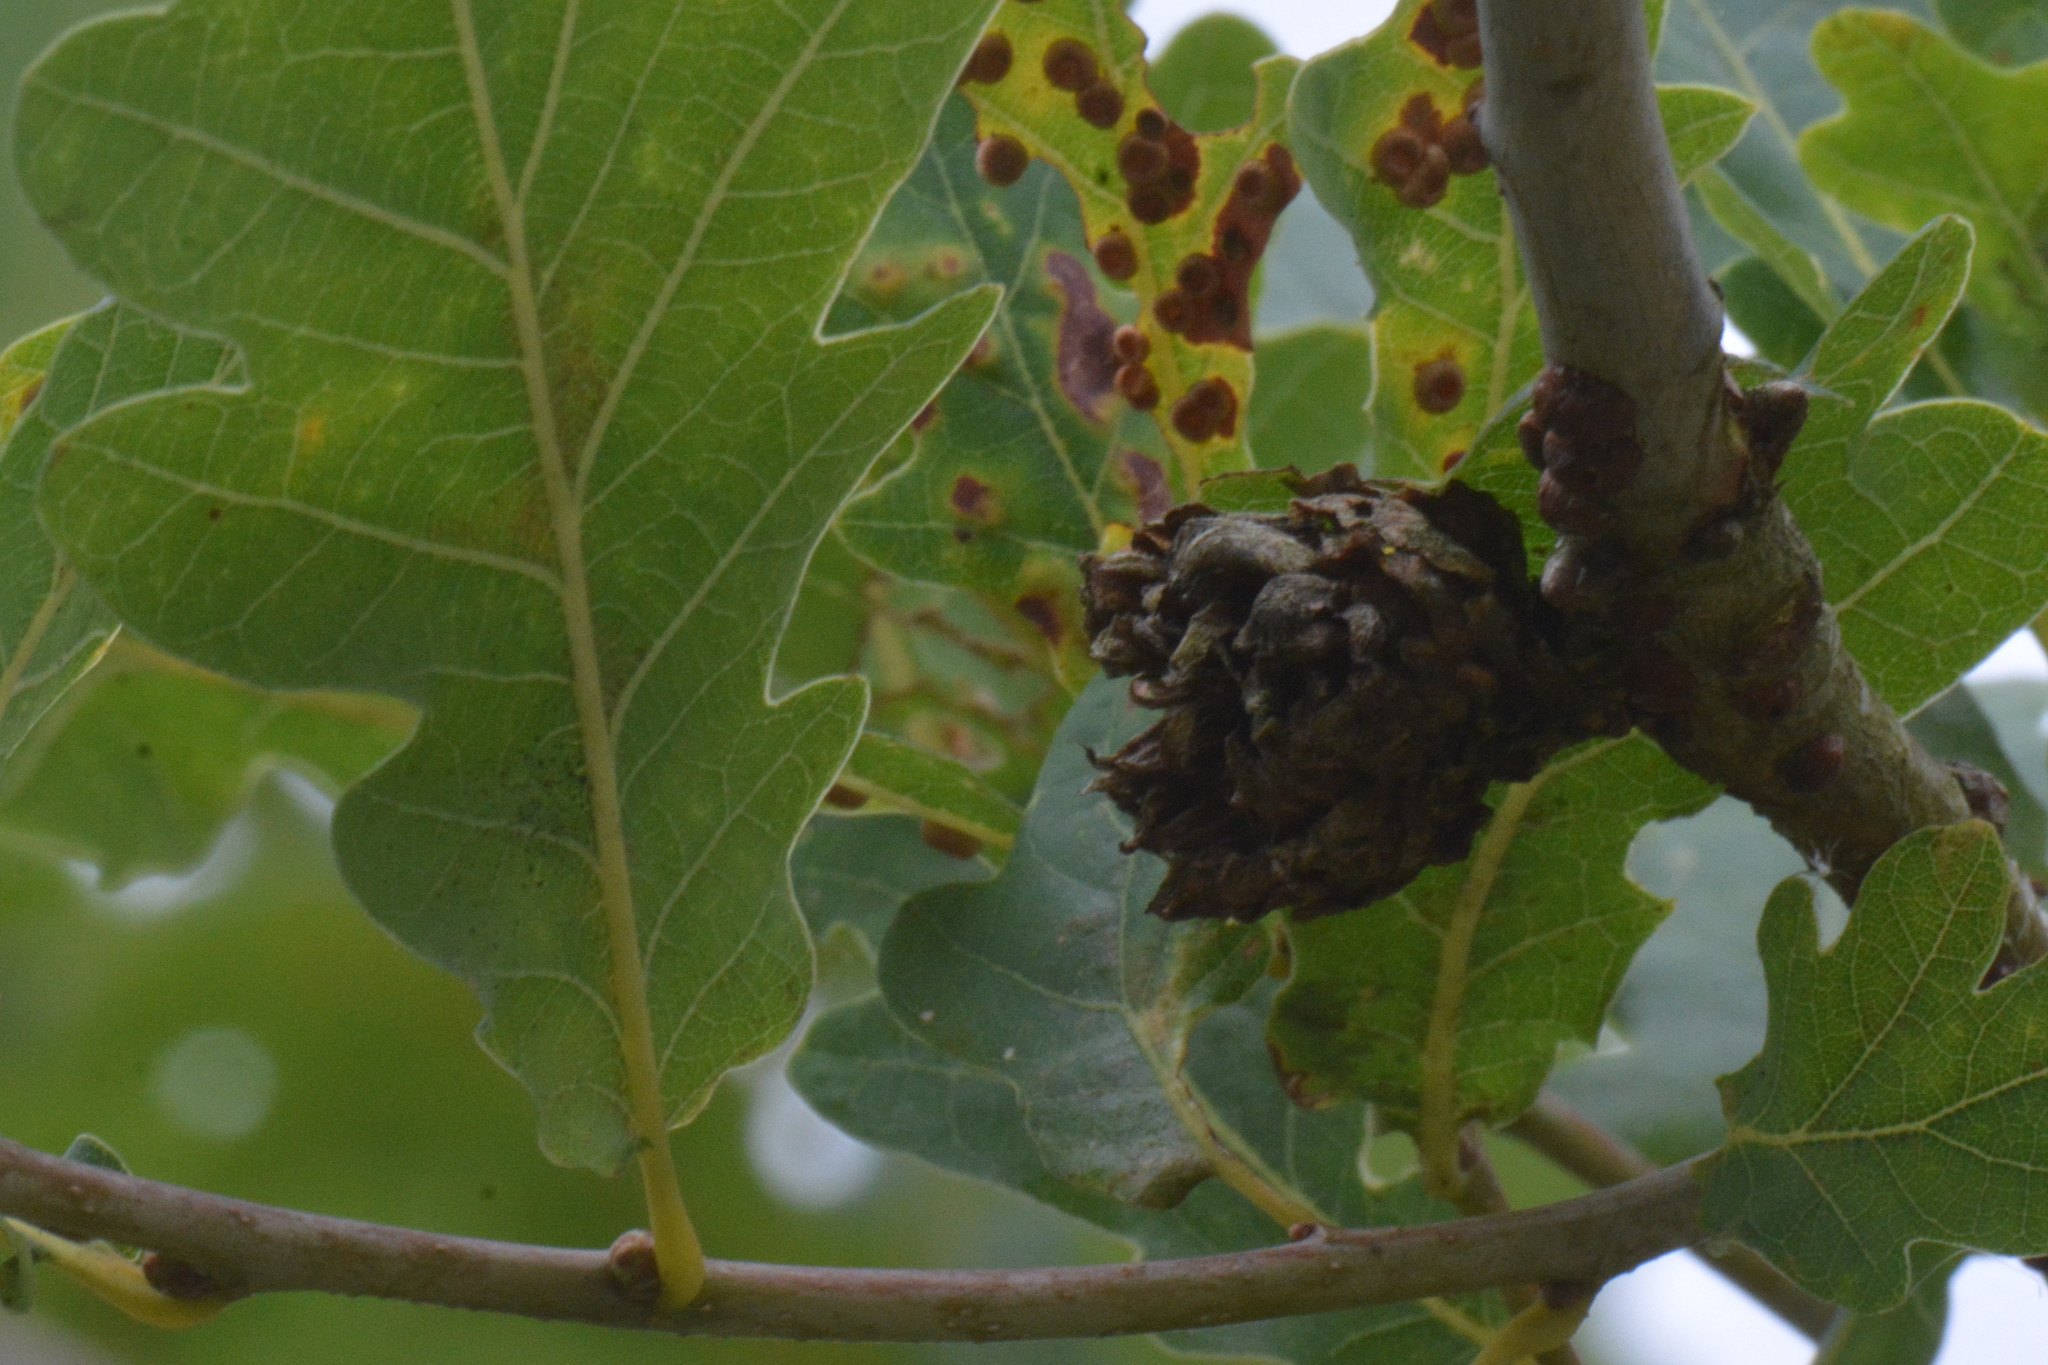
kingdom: Animalia
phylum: Arthropoda
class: Insecta
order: Hymenoptera
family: Cynipidae
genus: Andricus
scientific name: Andricus foecundatrix
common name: Artichoke gall
